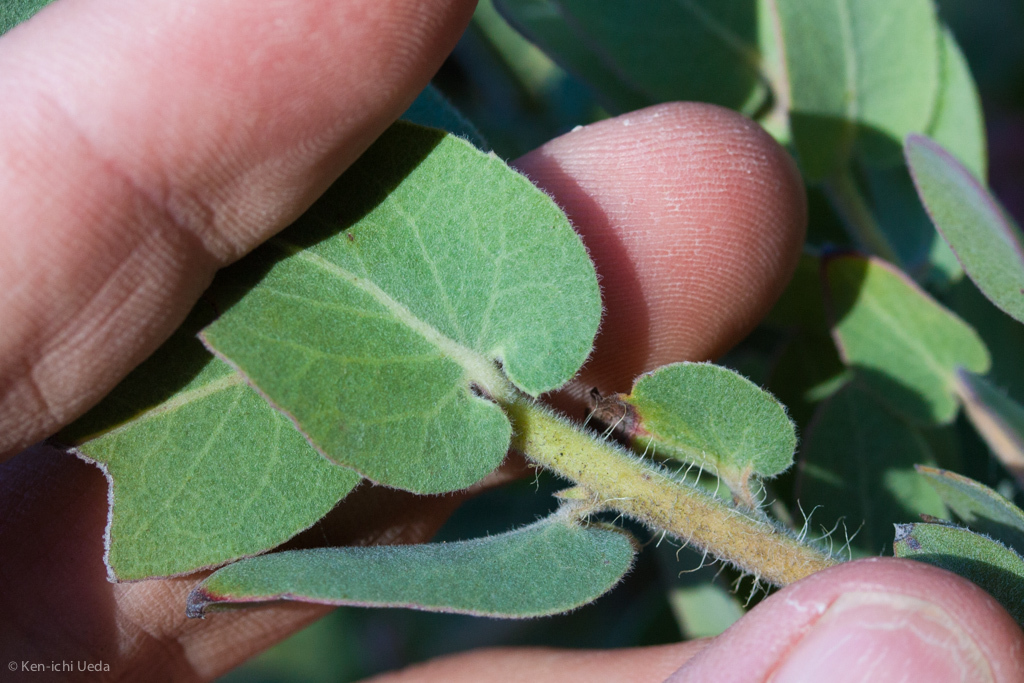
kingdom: Plantae
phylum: Tracheophyta
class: Magnoliopsida
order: Ericales
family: Ericaceae
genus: Arctostaphylos
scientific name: Arctostaphylos auriculata
